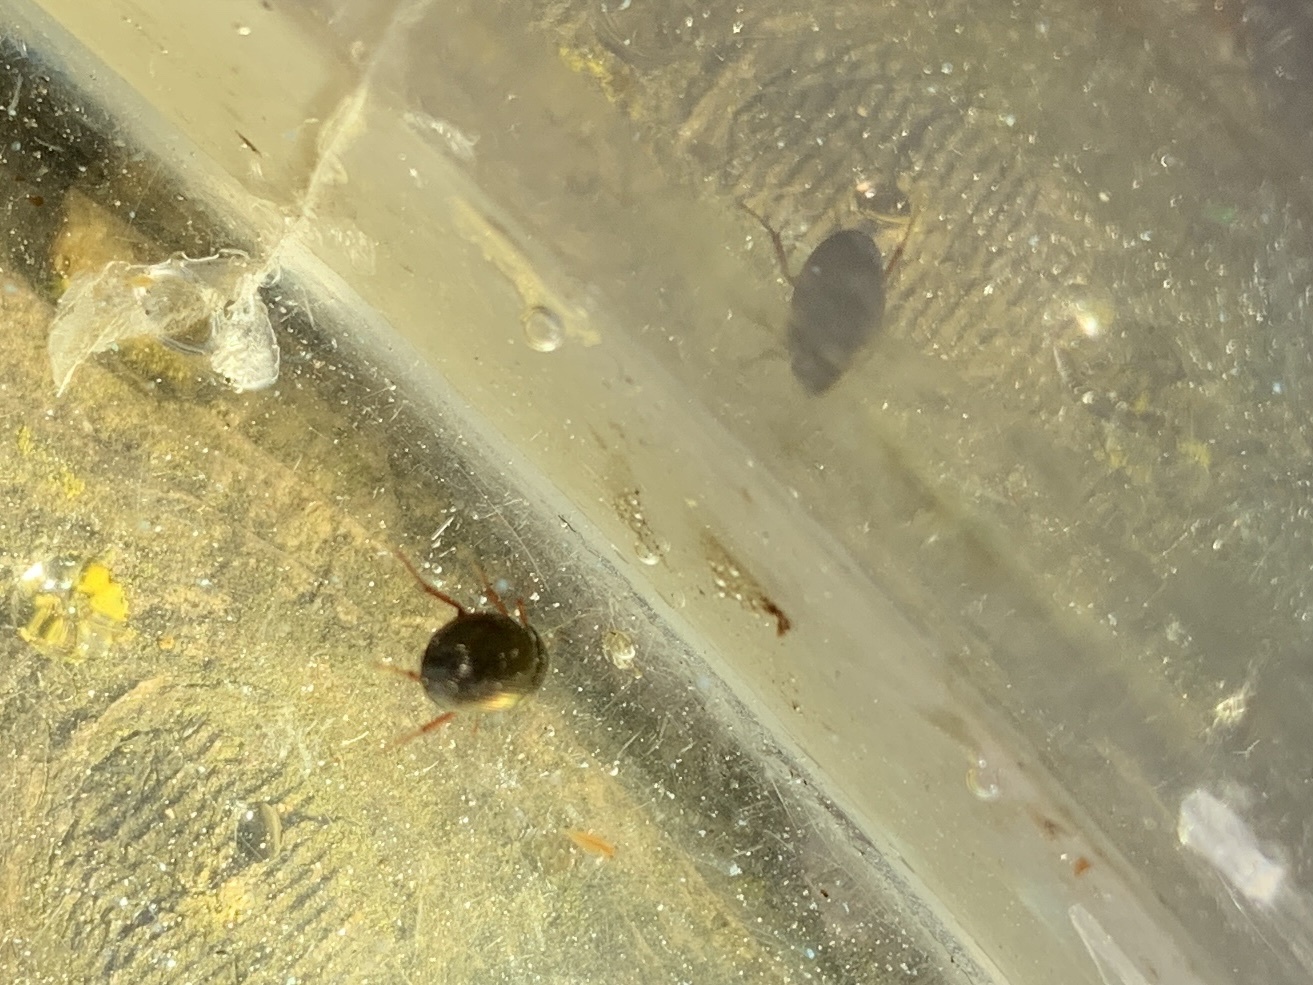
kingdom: Animalia
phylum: Arthropoda
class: Insecta
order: Coleoptera
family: Hydrophilidae
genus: Hydrobius
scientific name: Hydrobius fuscipes
